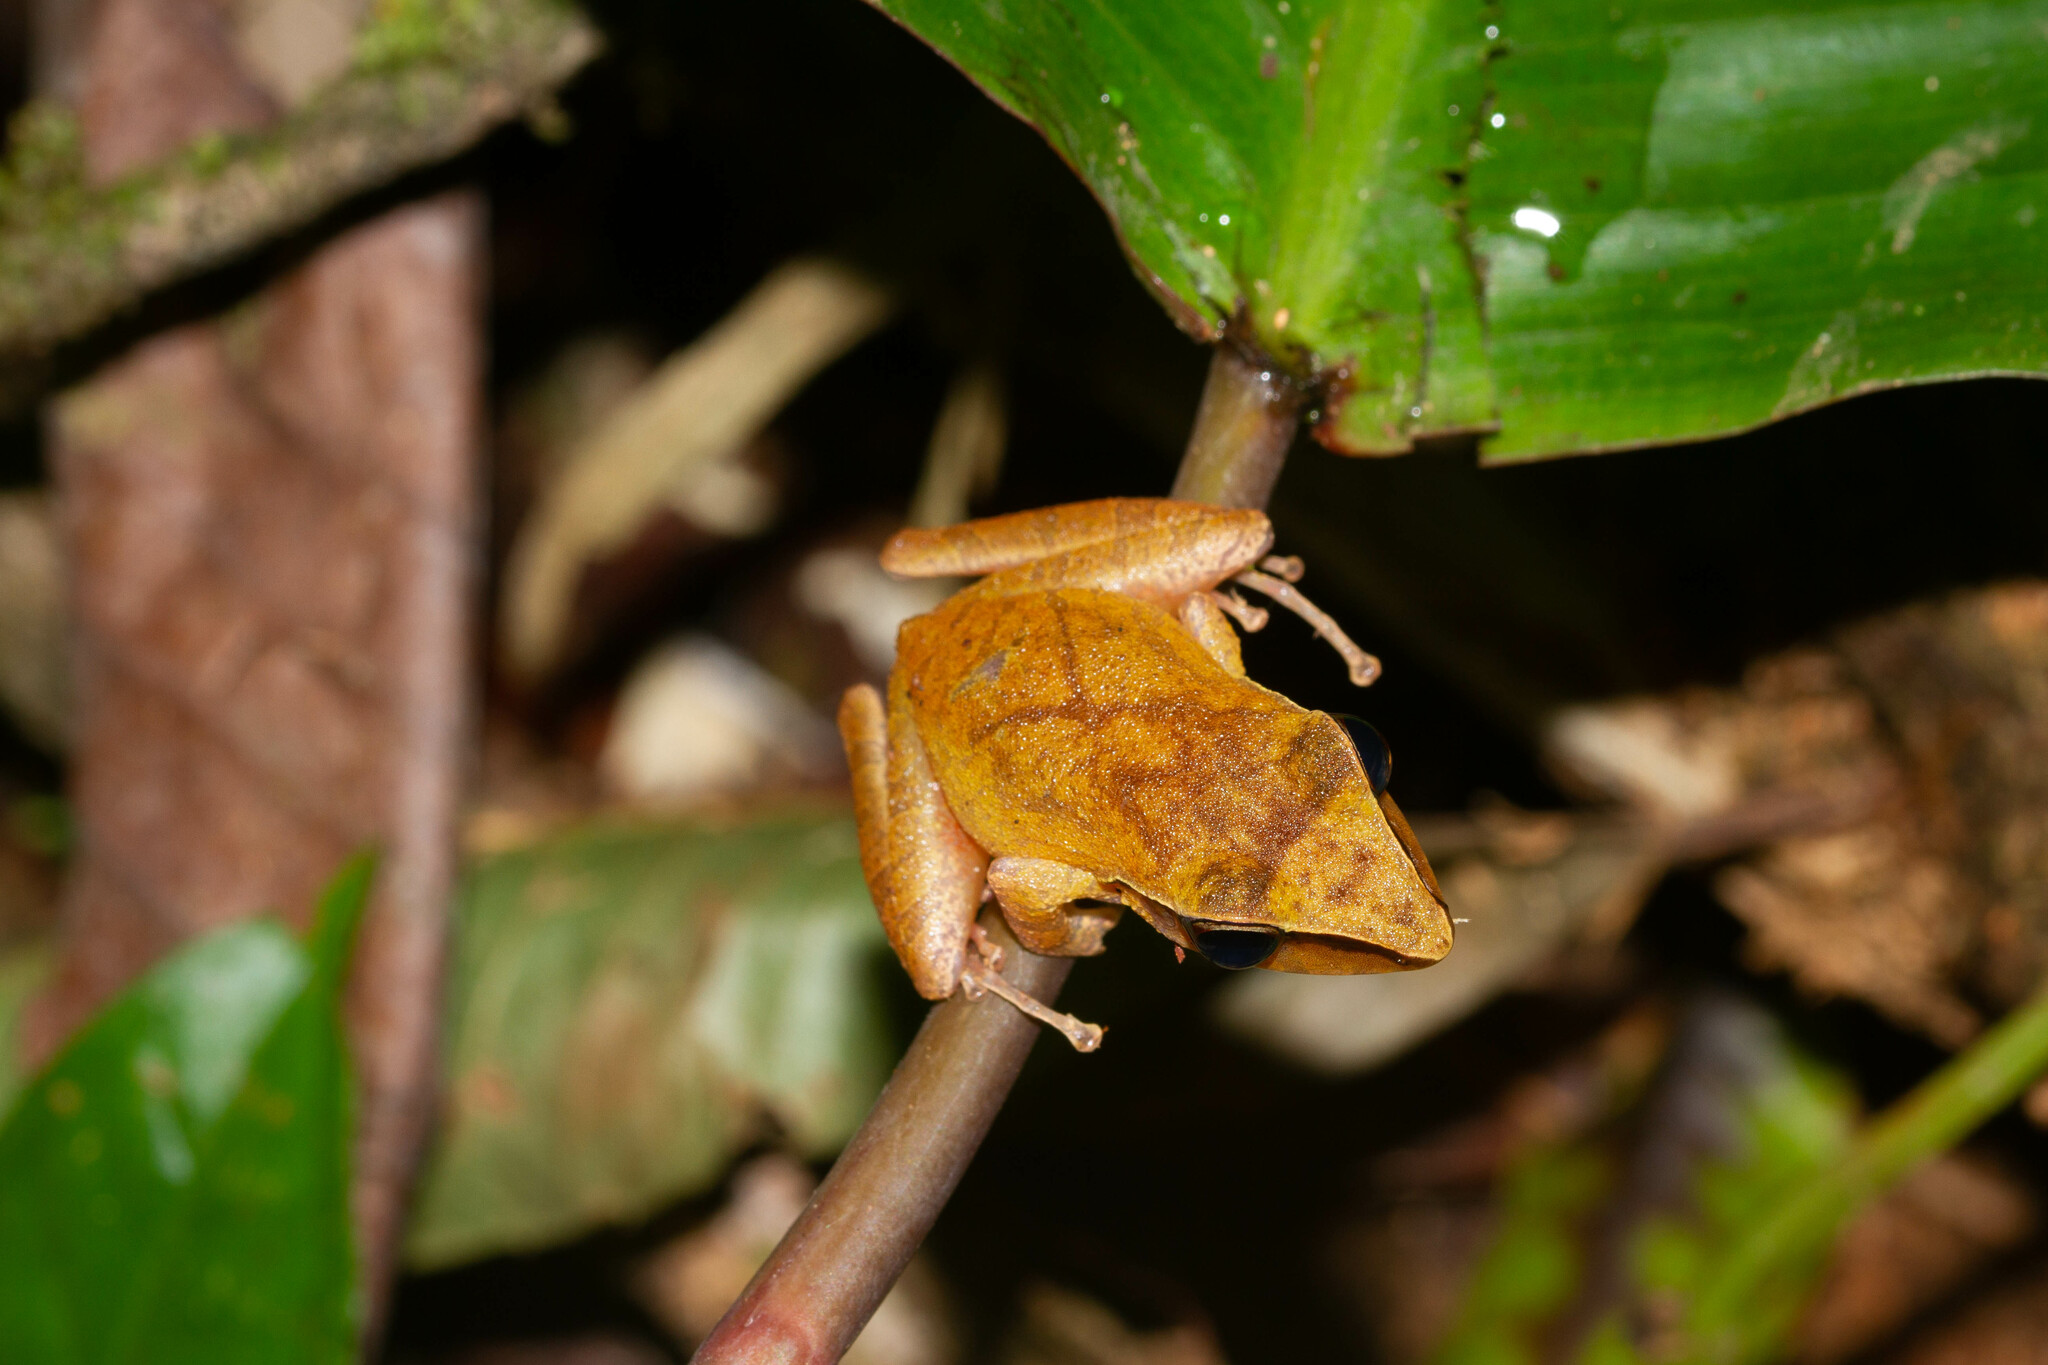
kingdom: Animalia
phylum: Chordata
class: Amphibia
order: Anura
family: Craugastoridae
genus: Pristimantis
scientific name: Pristimantis chiastonotus
